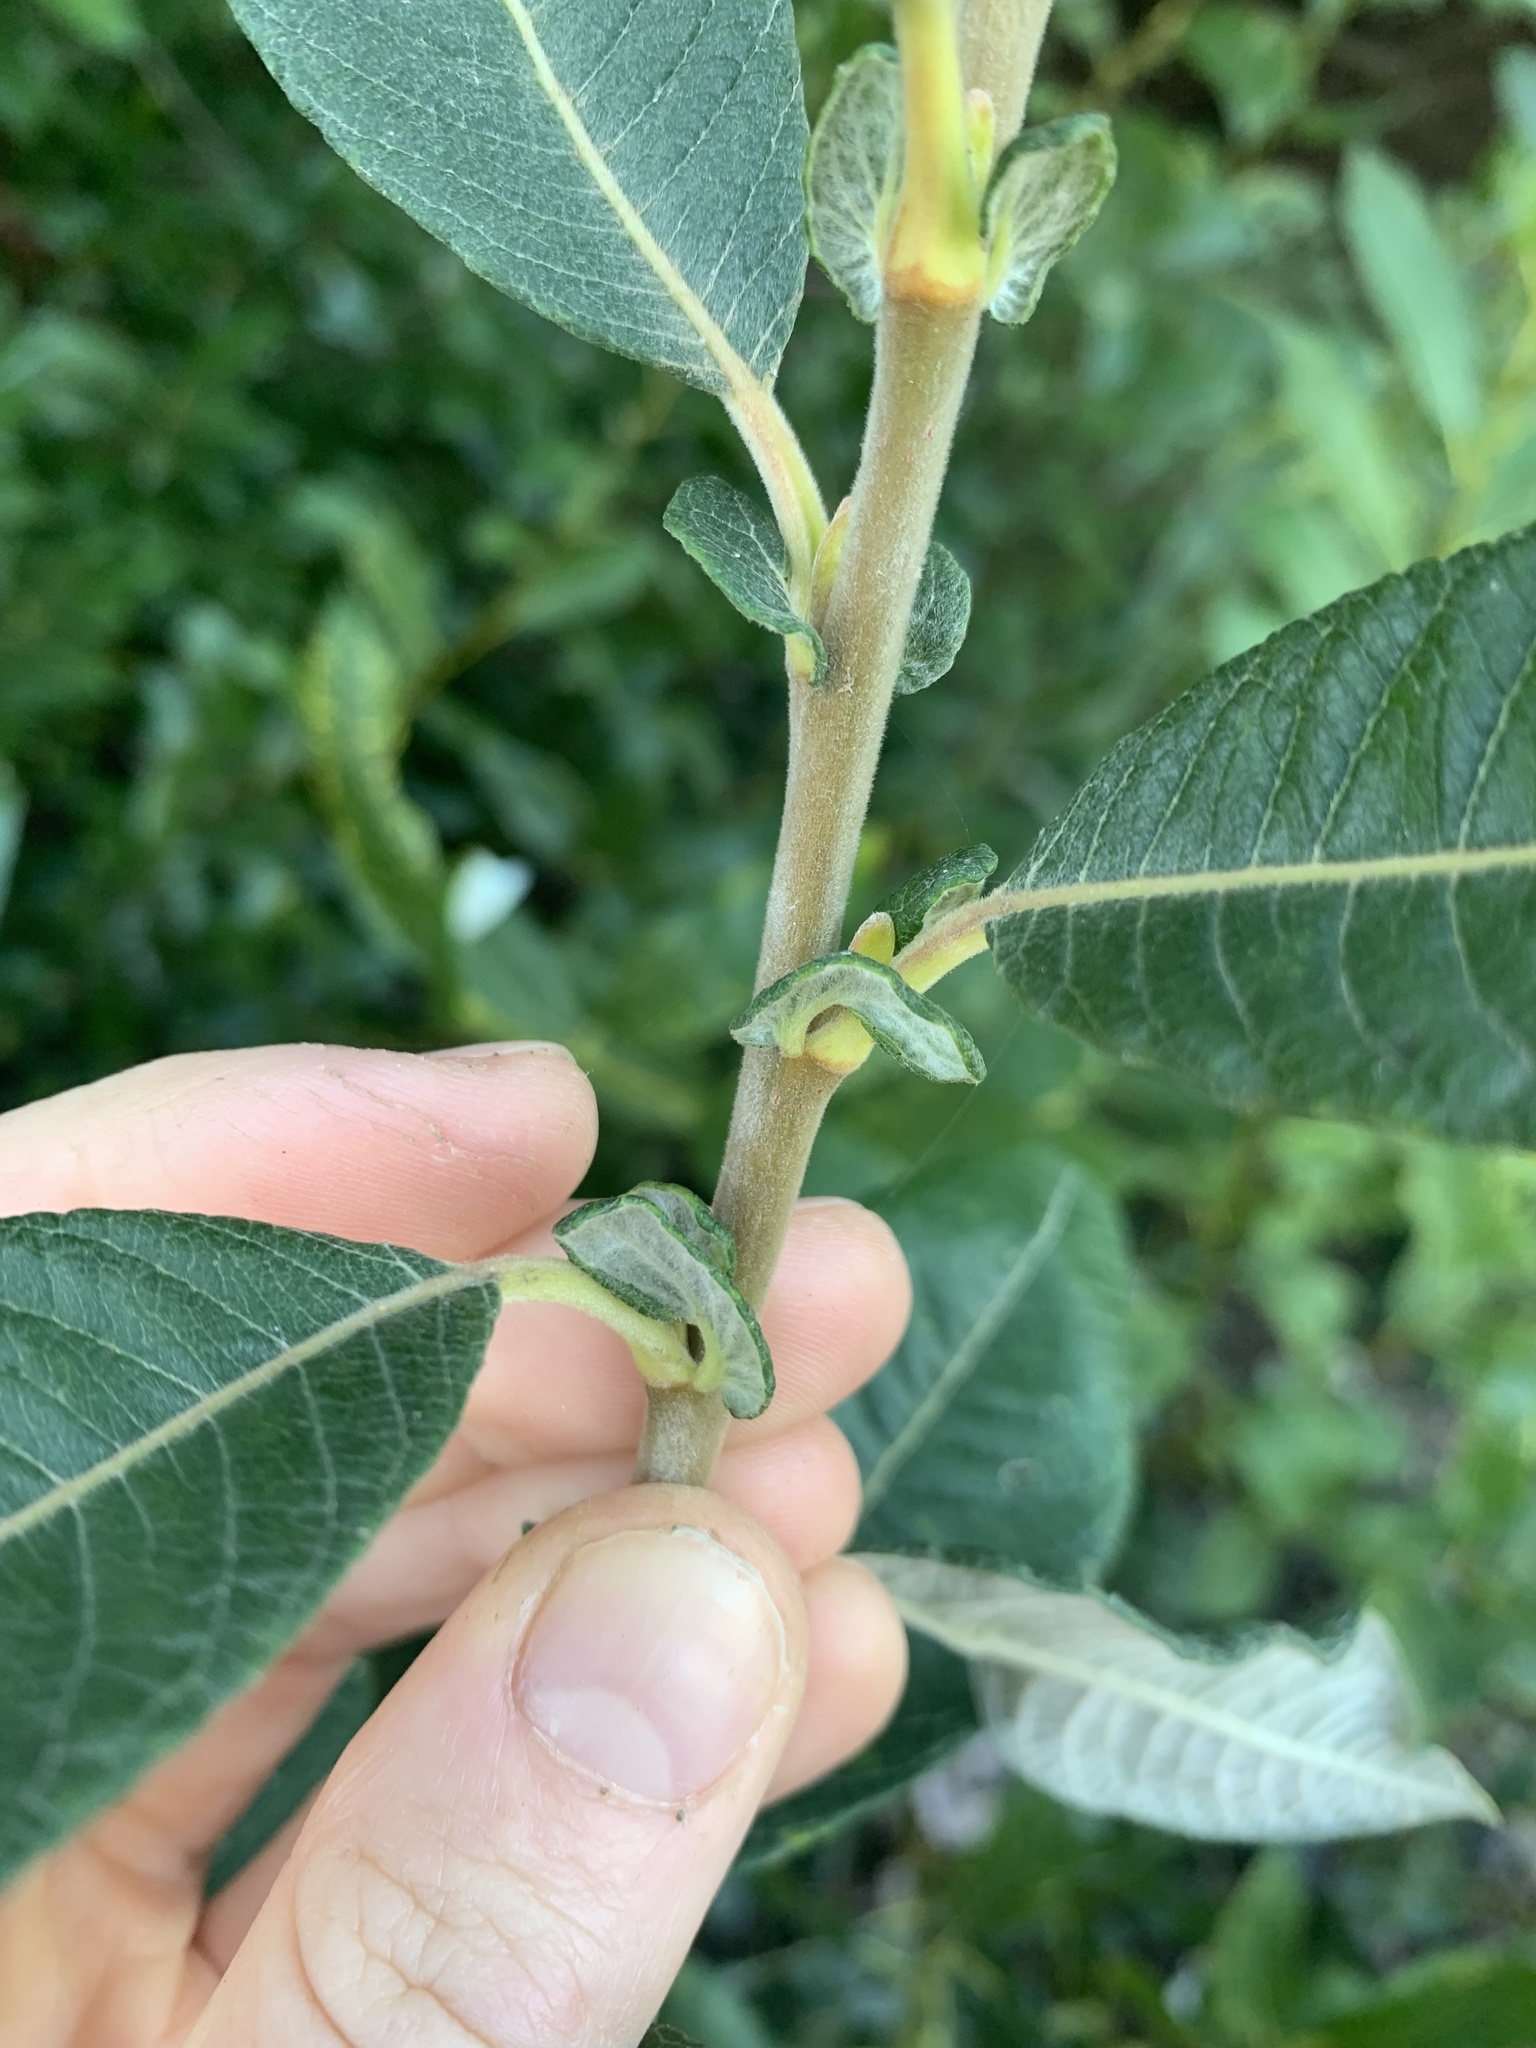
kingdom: Plantae
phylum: Tracheophyta
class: Magnoliopsida
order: Malpighiales
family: Salicaceae
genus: Salix
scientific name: Salix sitchensis
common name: Sitka willow
